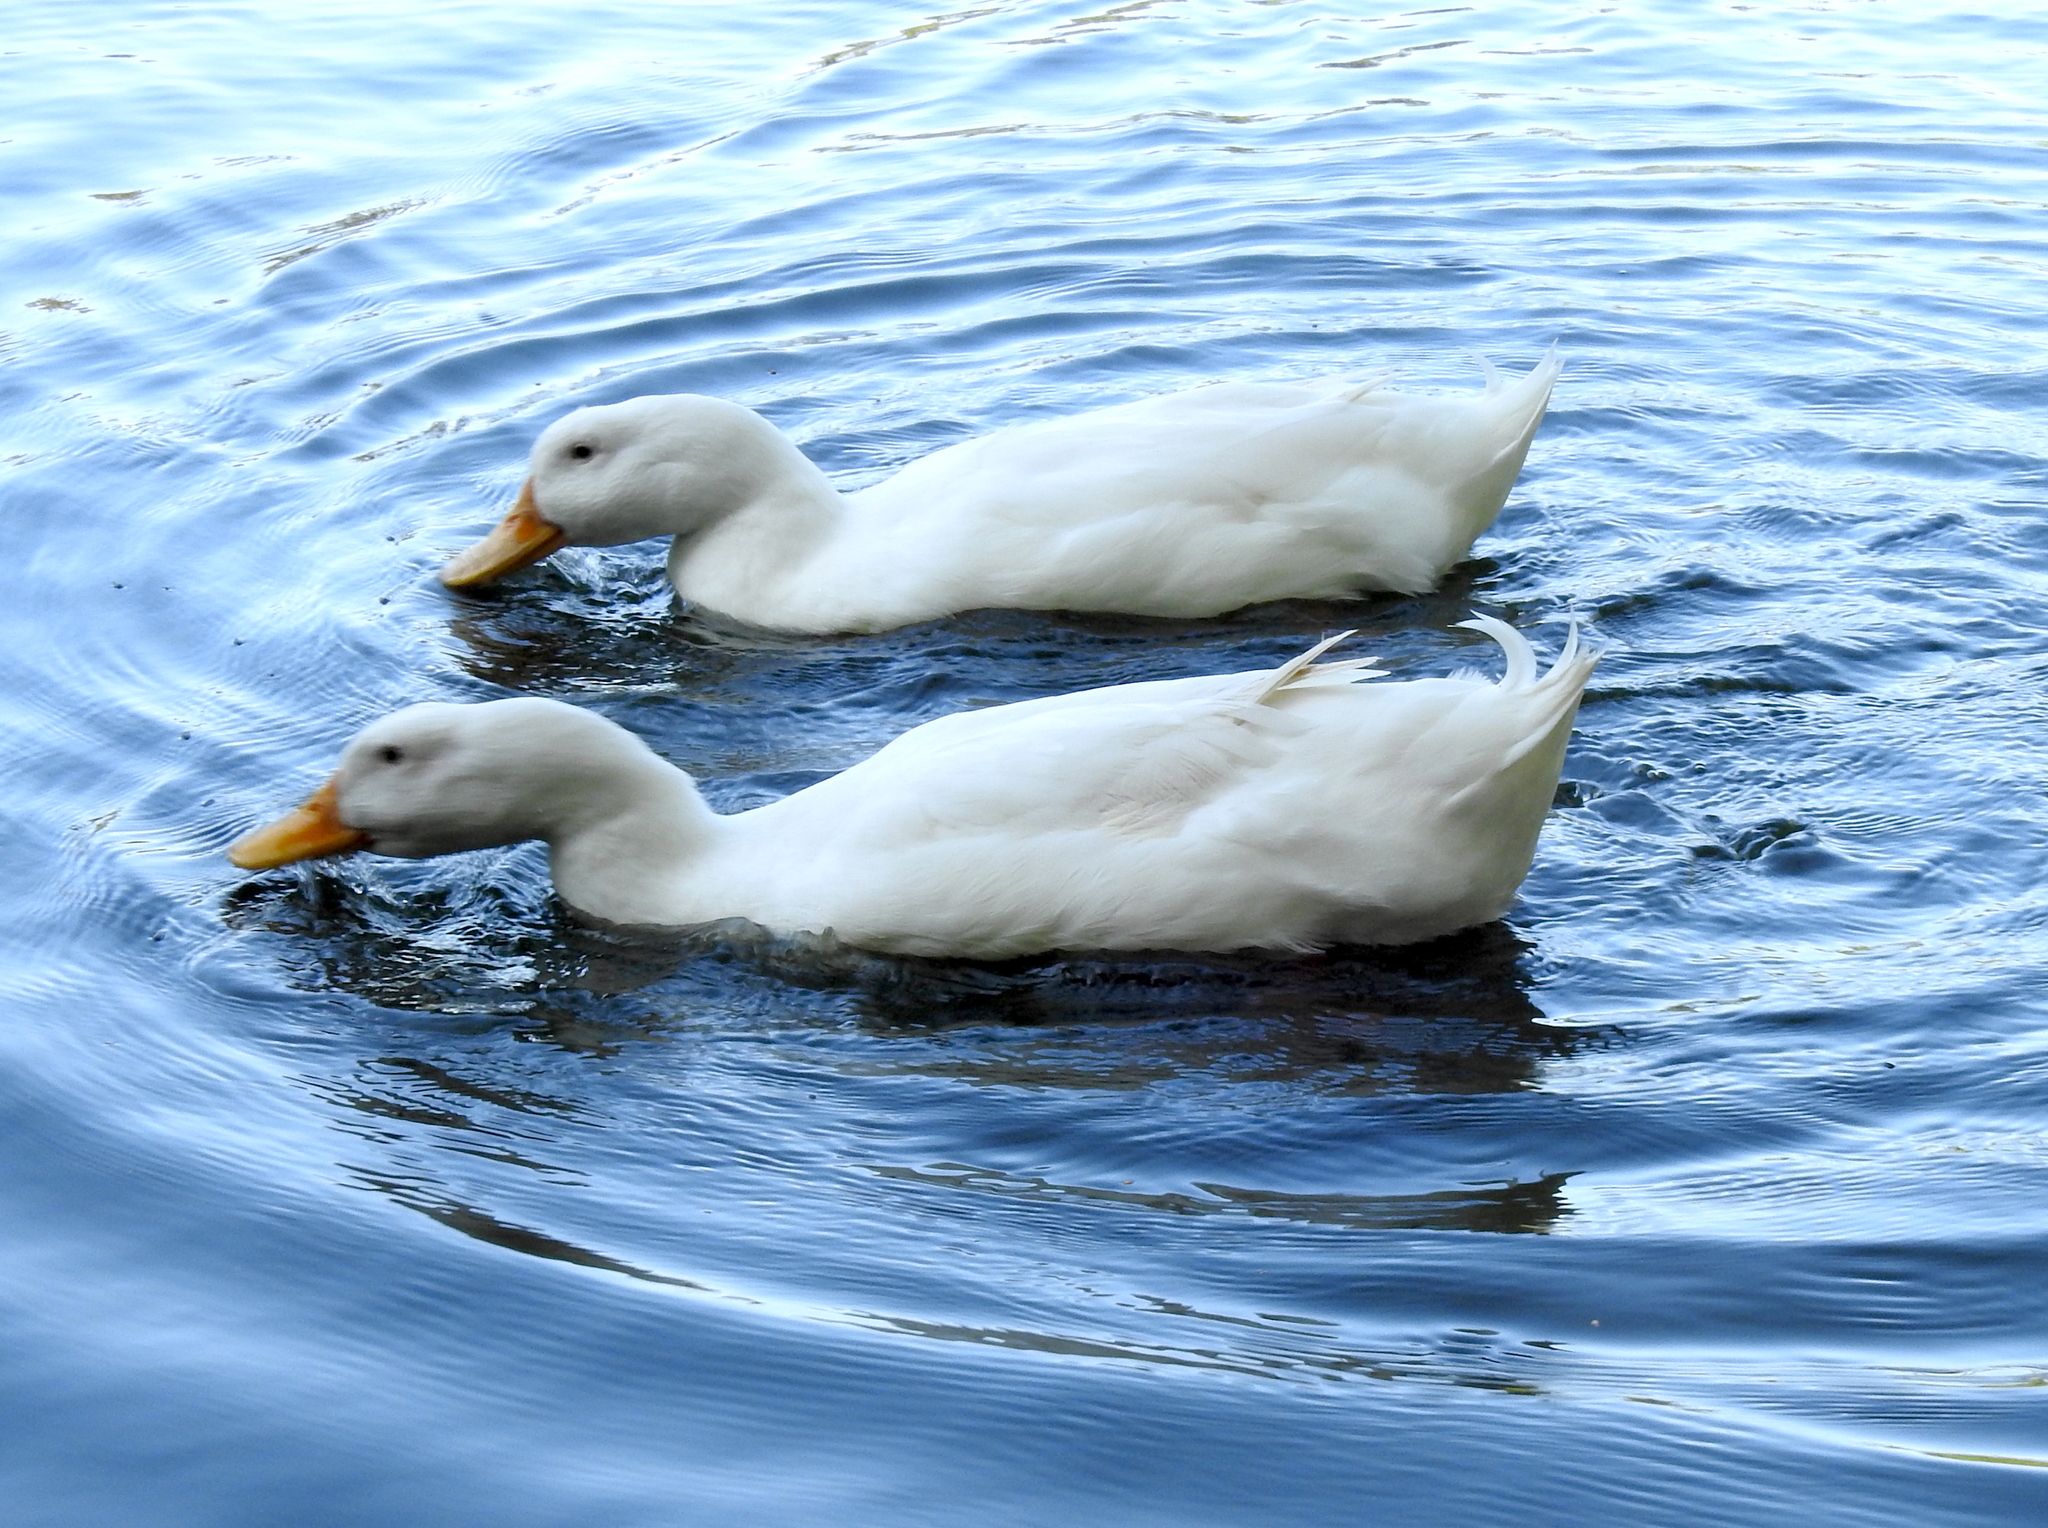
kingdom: Animalia
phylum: Chordata
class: Aves
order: Anseriformes
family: Anatidae
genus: Anas
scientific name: Anas platyrhynchos
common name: Mallard
